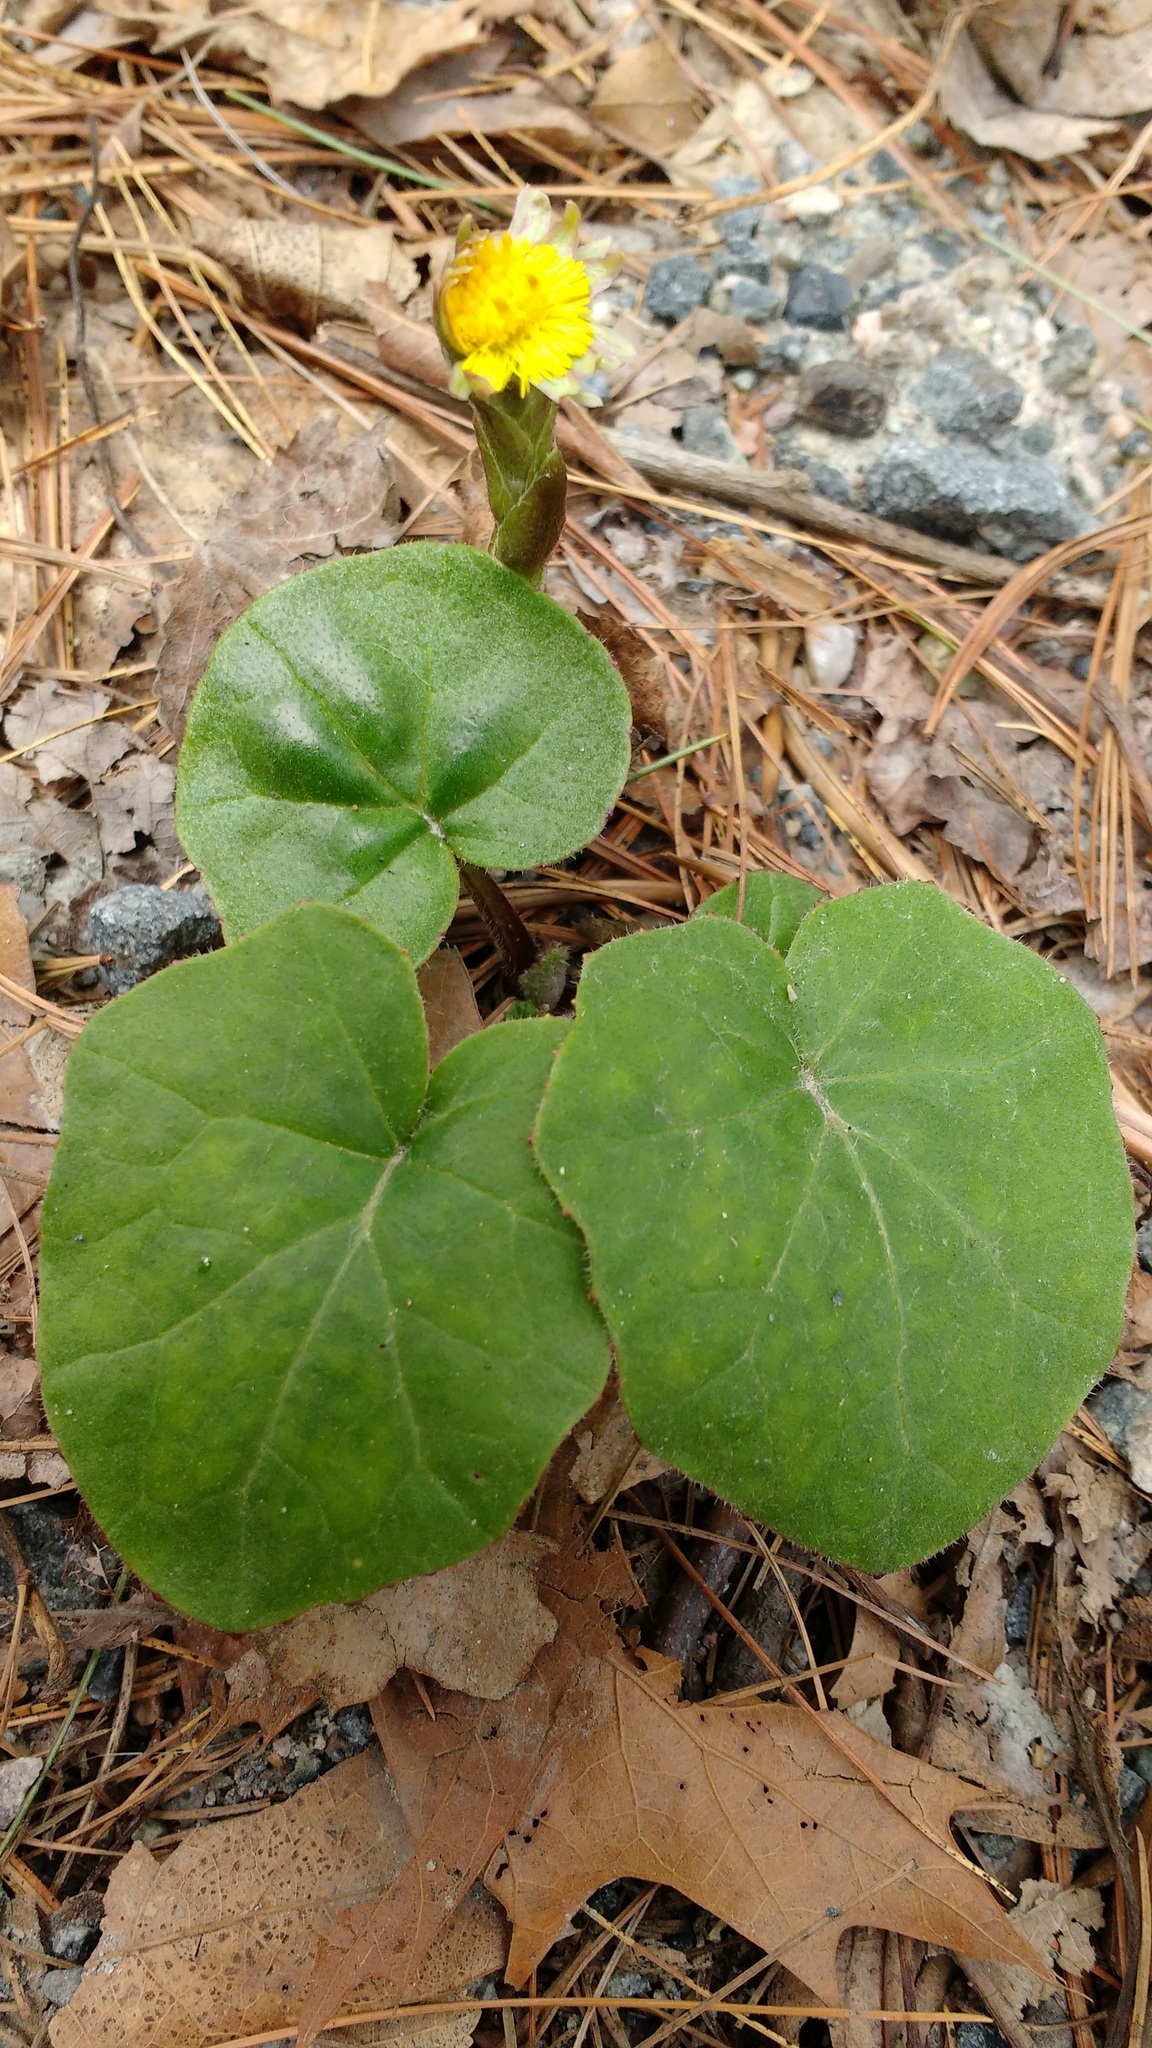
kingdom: Plantae
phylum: Tracheophyta
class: Magnoliopsida
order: Asterales
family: Asteraceae
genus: Tussilago
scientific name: Tussilago farfara
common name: Coltsfoot
